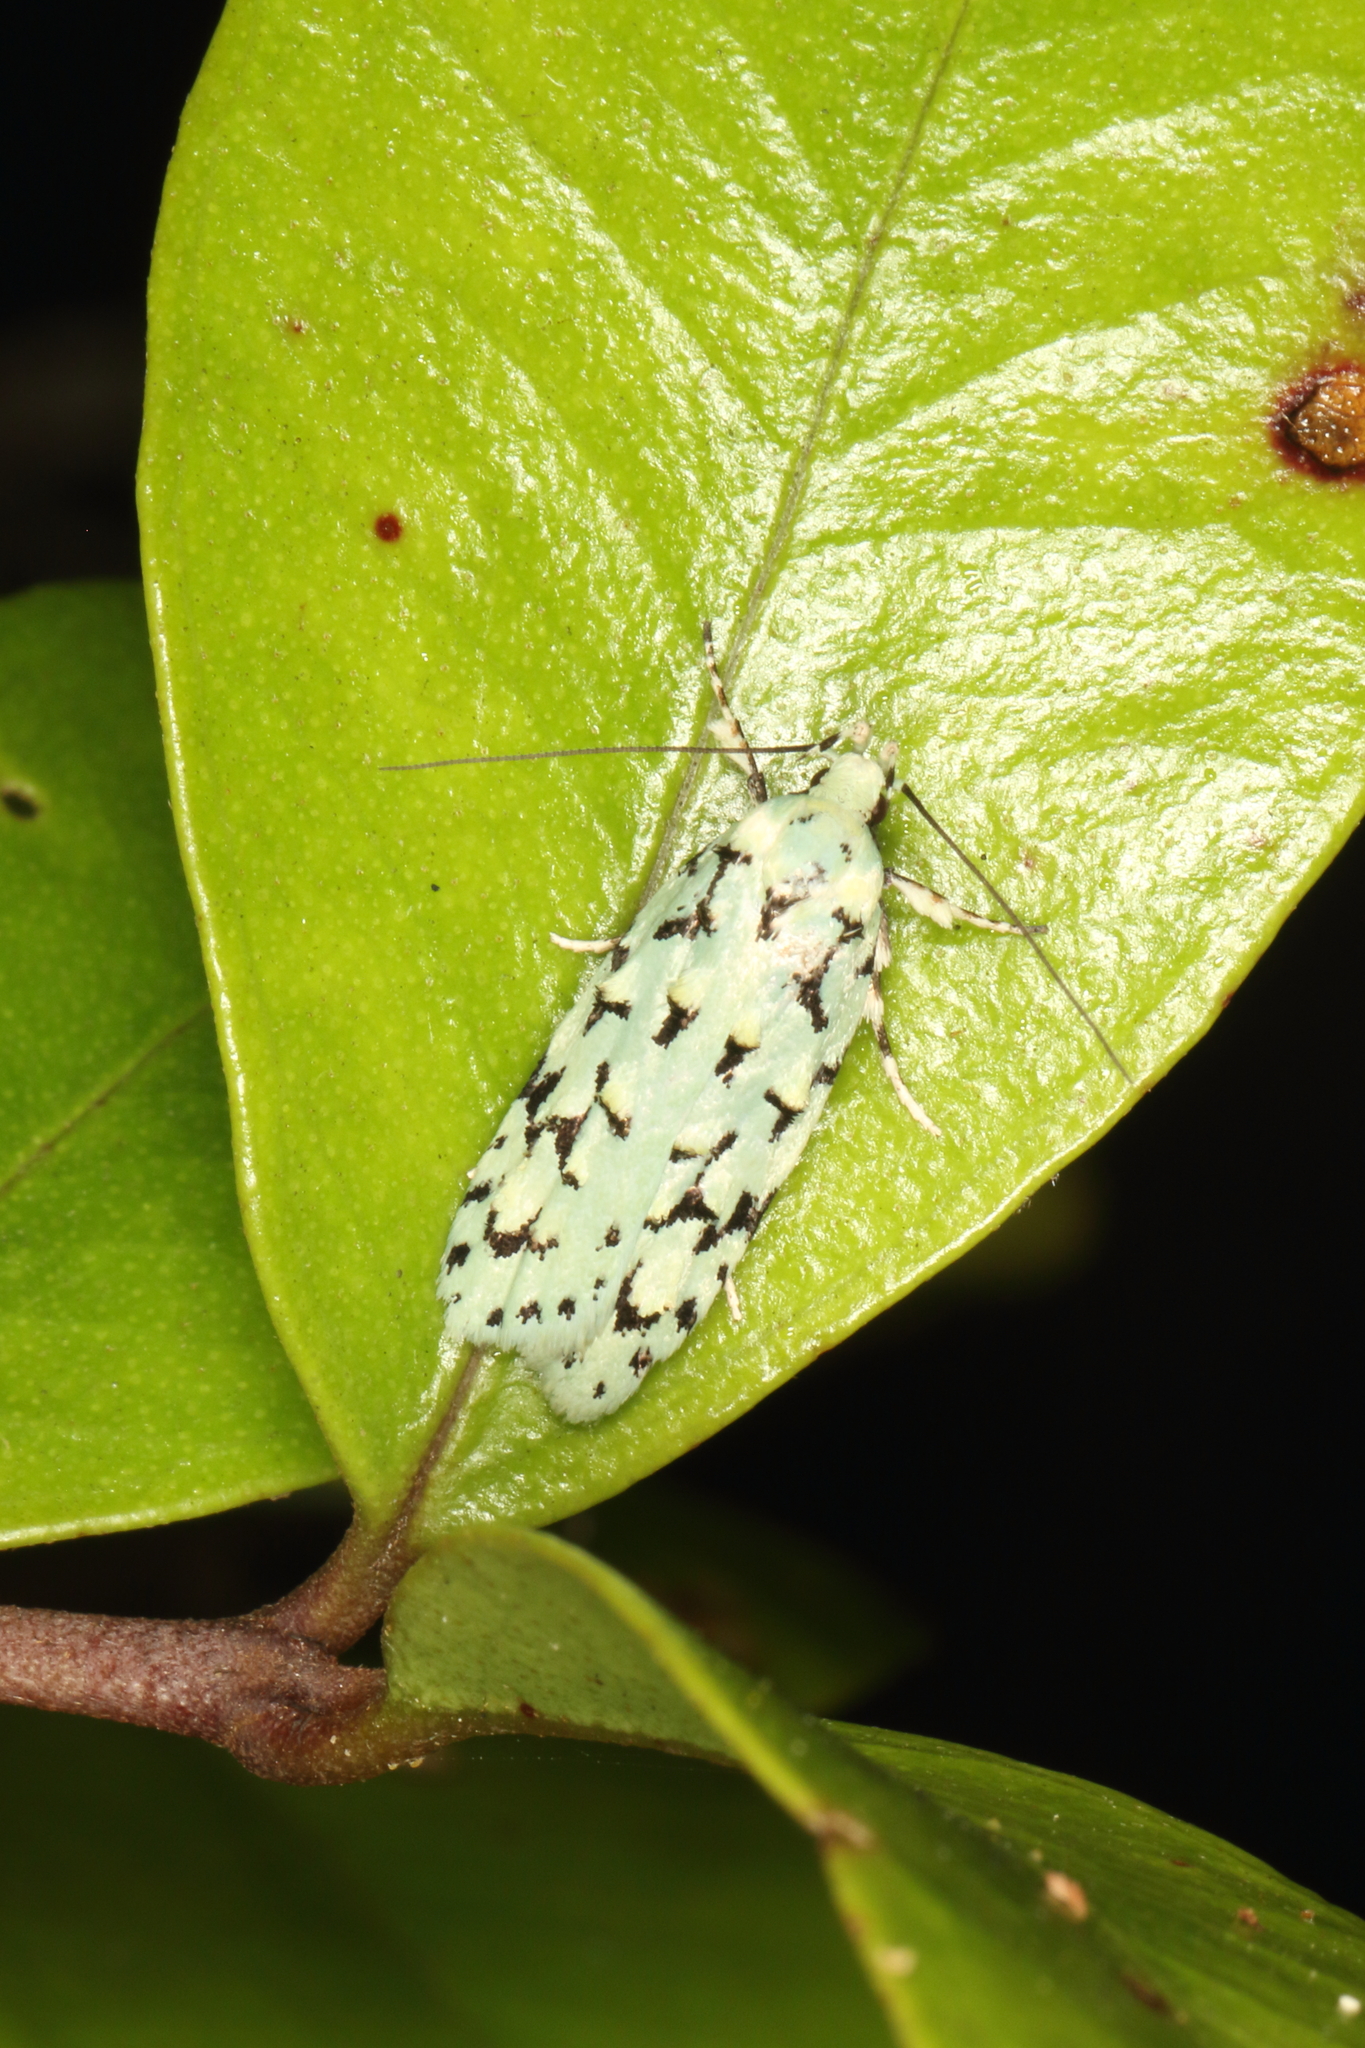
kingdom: Animalia
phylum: Arthropoda
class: Insecta
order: Lepidoptera
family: Oecophoridae
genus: Izatha
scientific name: Izatha peroneanella
